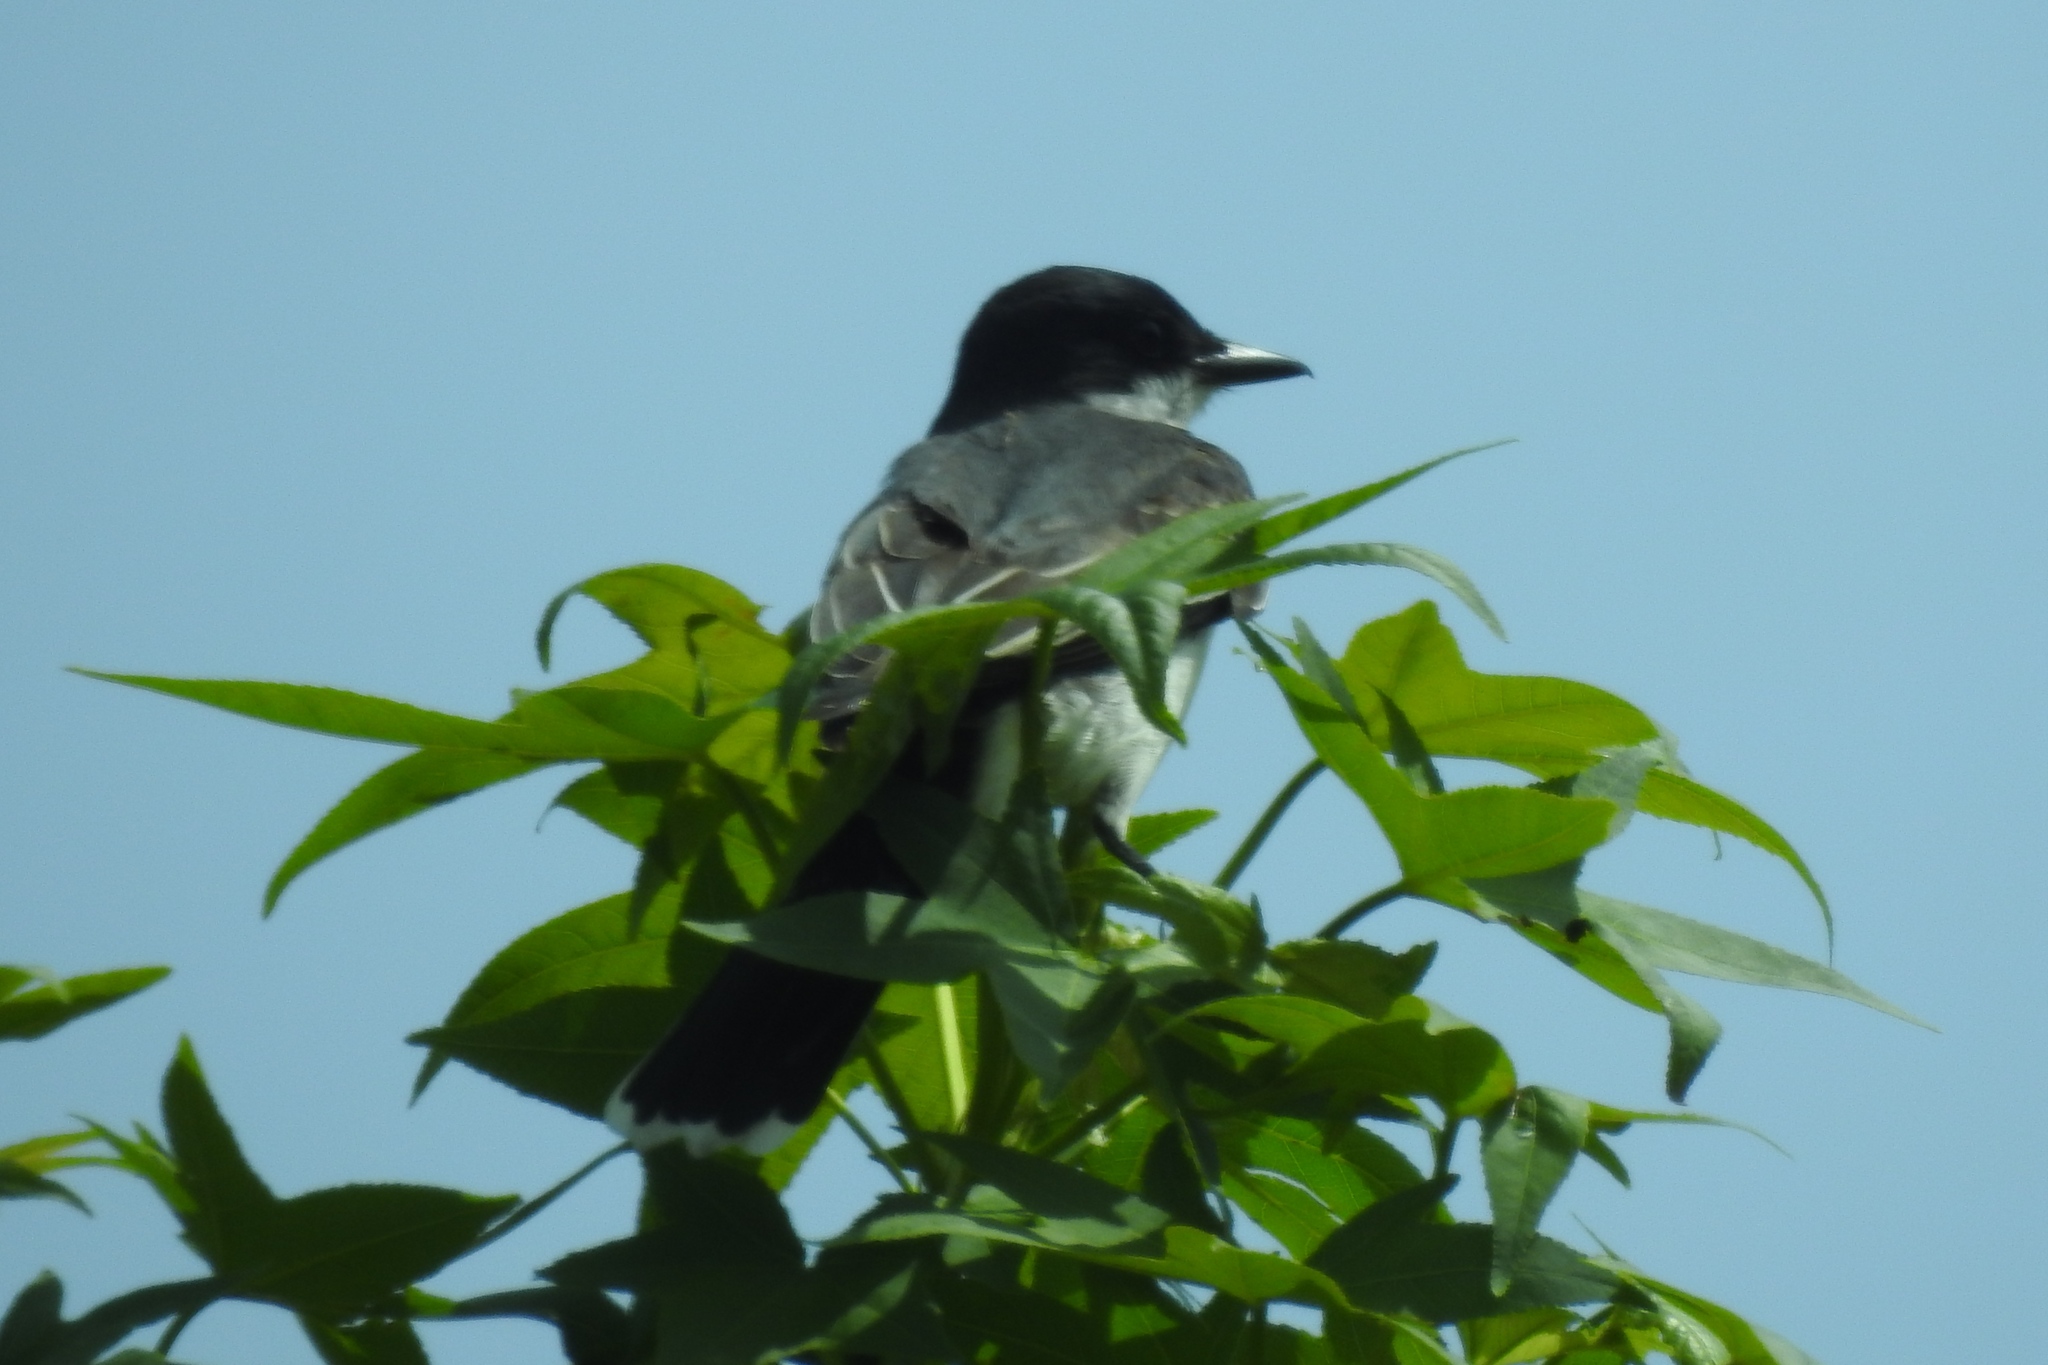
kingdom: Animalia
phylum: Chordata
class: Aves
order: Passeriformes
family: Tyrannidae
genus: Tyrannus
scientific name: Tyrannus tyrannus
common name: Eastern kingbird
